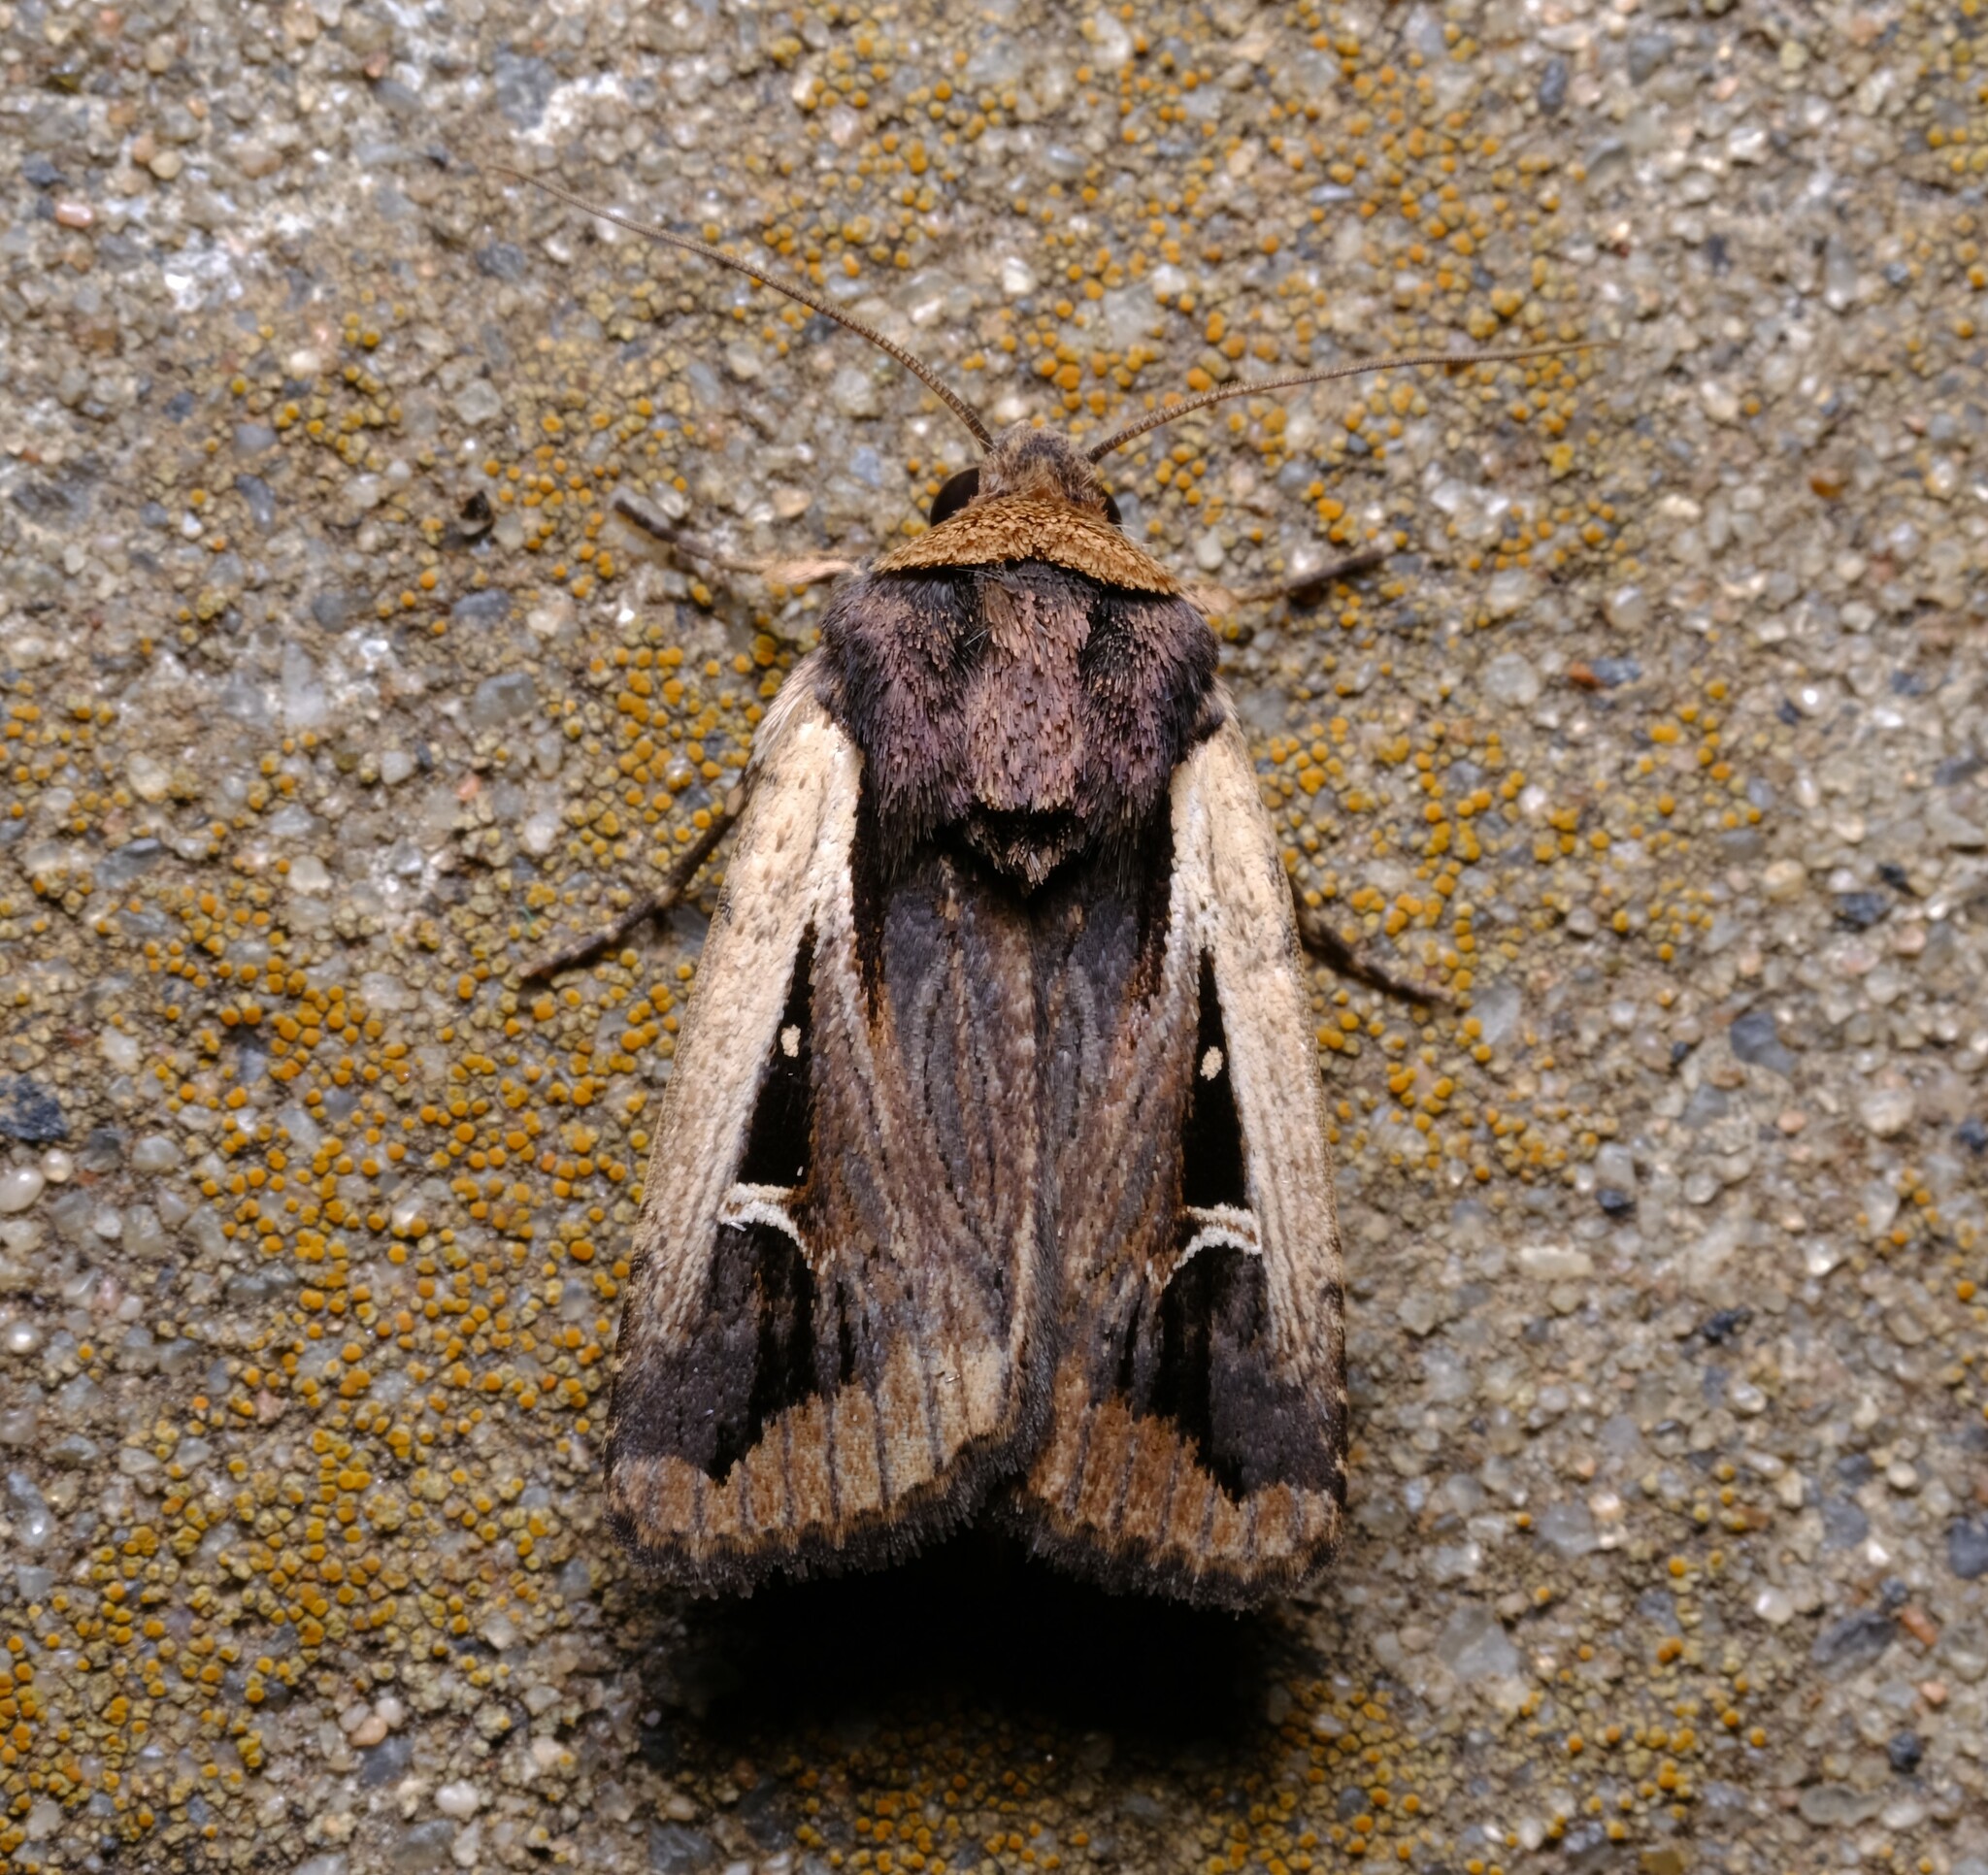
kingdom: Animalia
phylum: Arthropoda
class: Insecta
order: Lepidoptera
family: Noctuidae
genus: Proteuxoa
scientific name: Proteuxoa tortisigna
